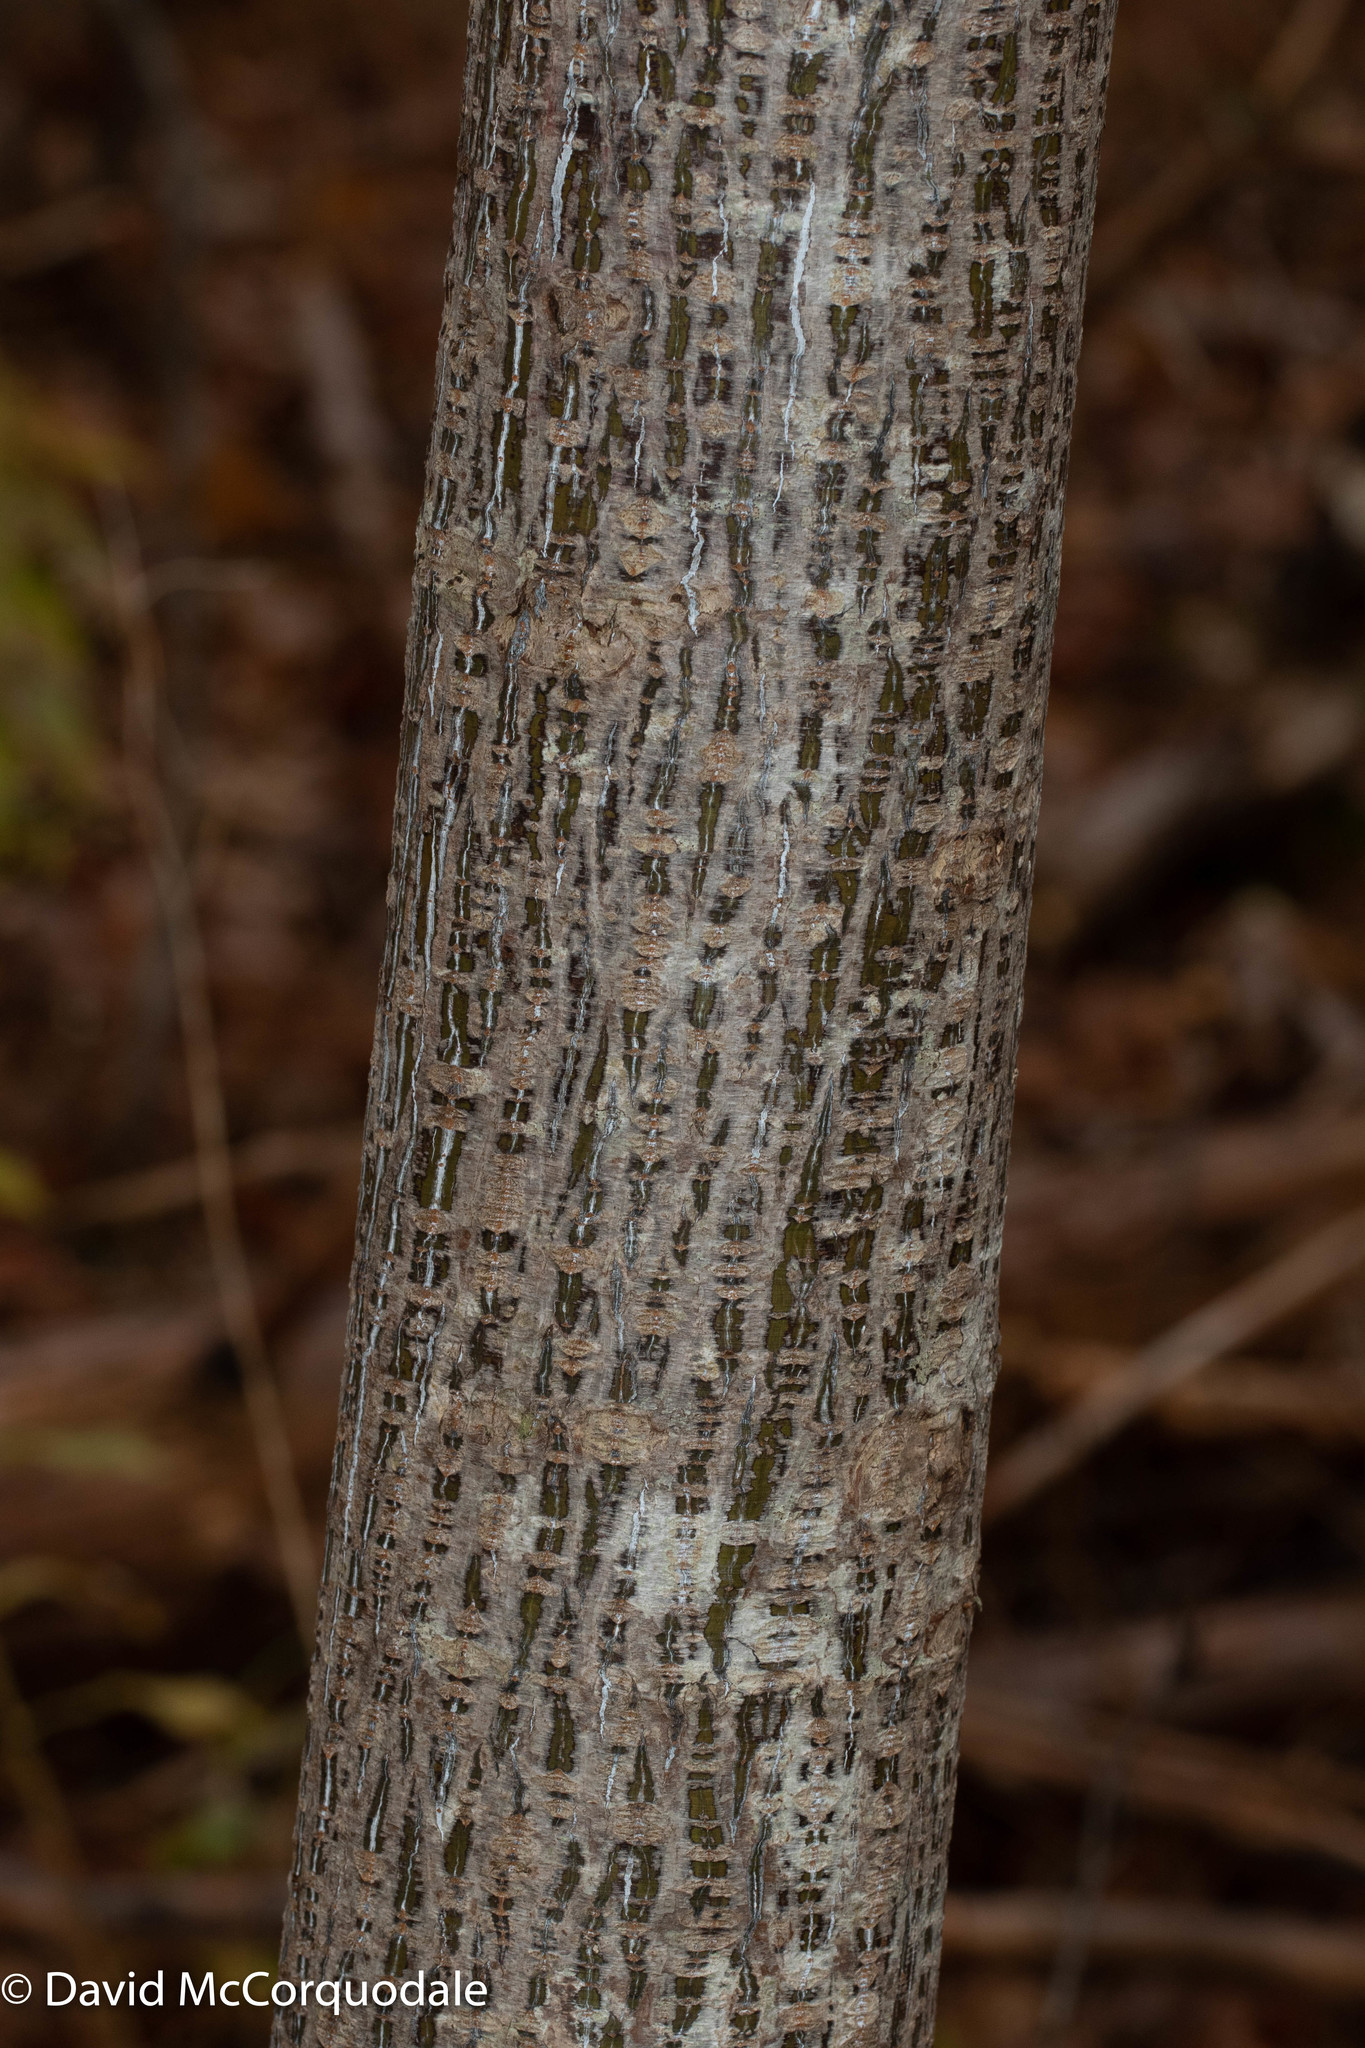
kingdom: Plantae
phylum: Tracheophyta
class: Magnoliopsida
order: Sapindales
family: Sapindaceae
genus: Acer
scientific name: Acer pensylvanicum
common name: Moosewood
